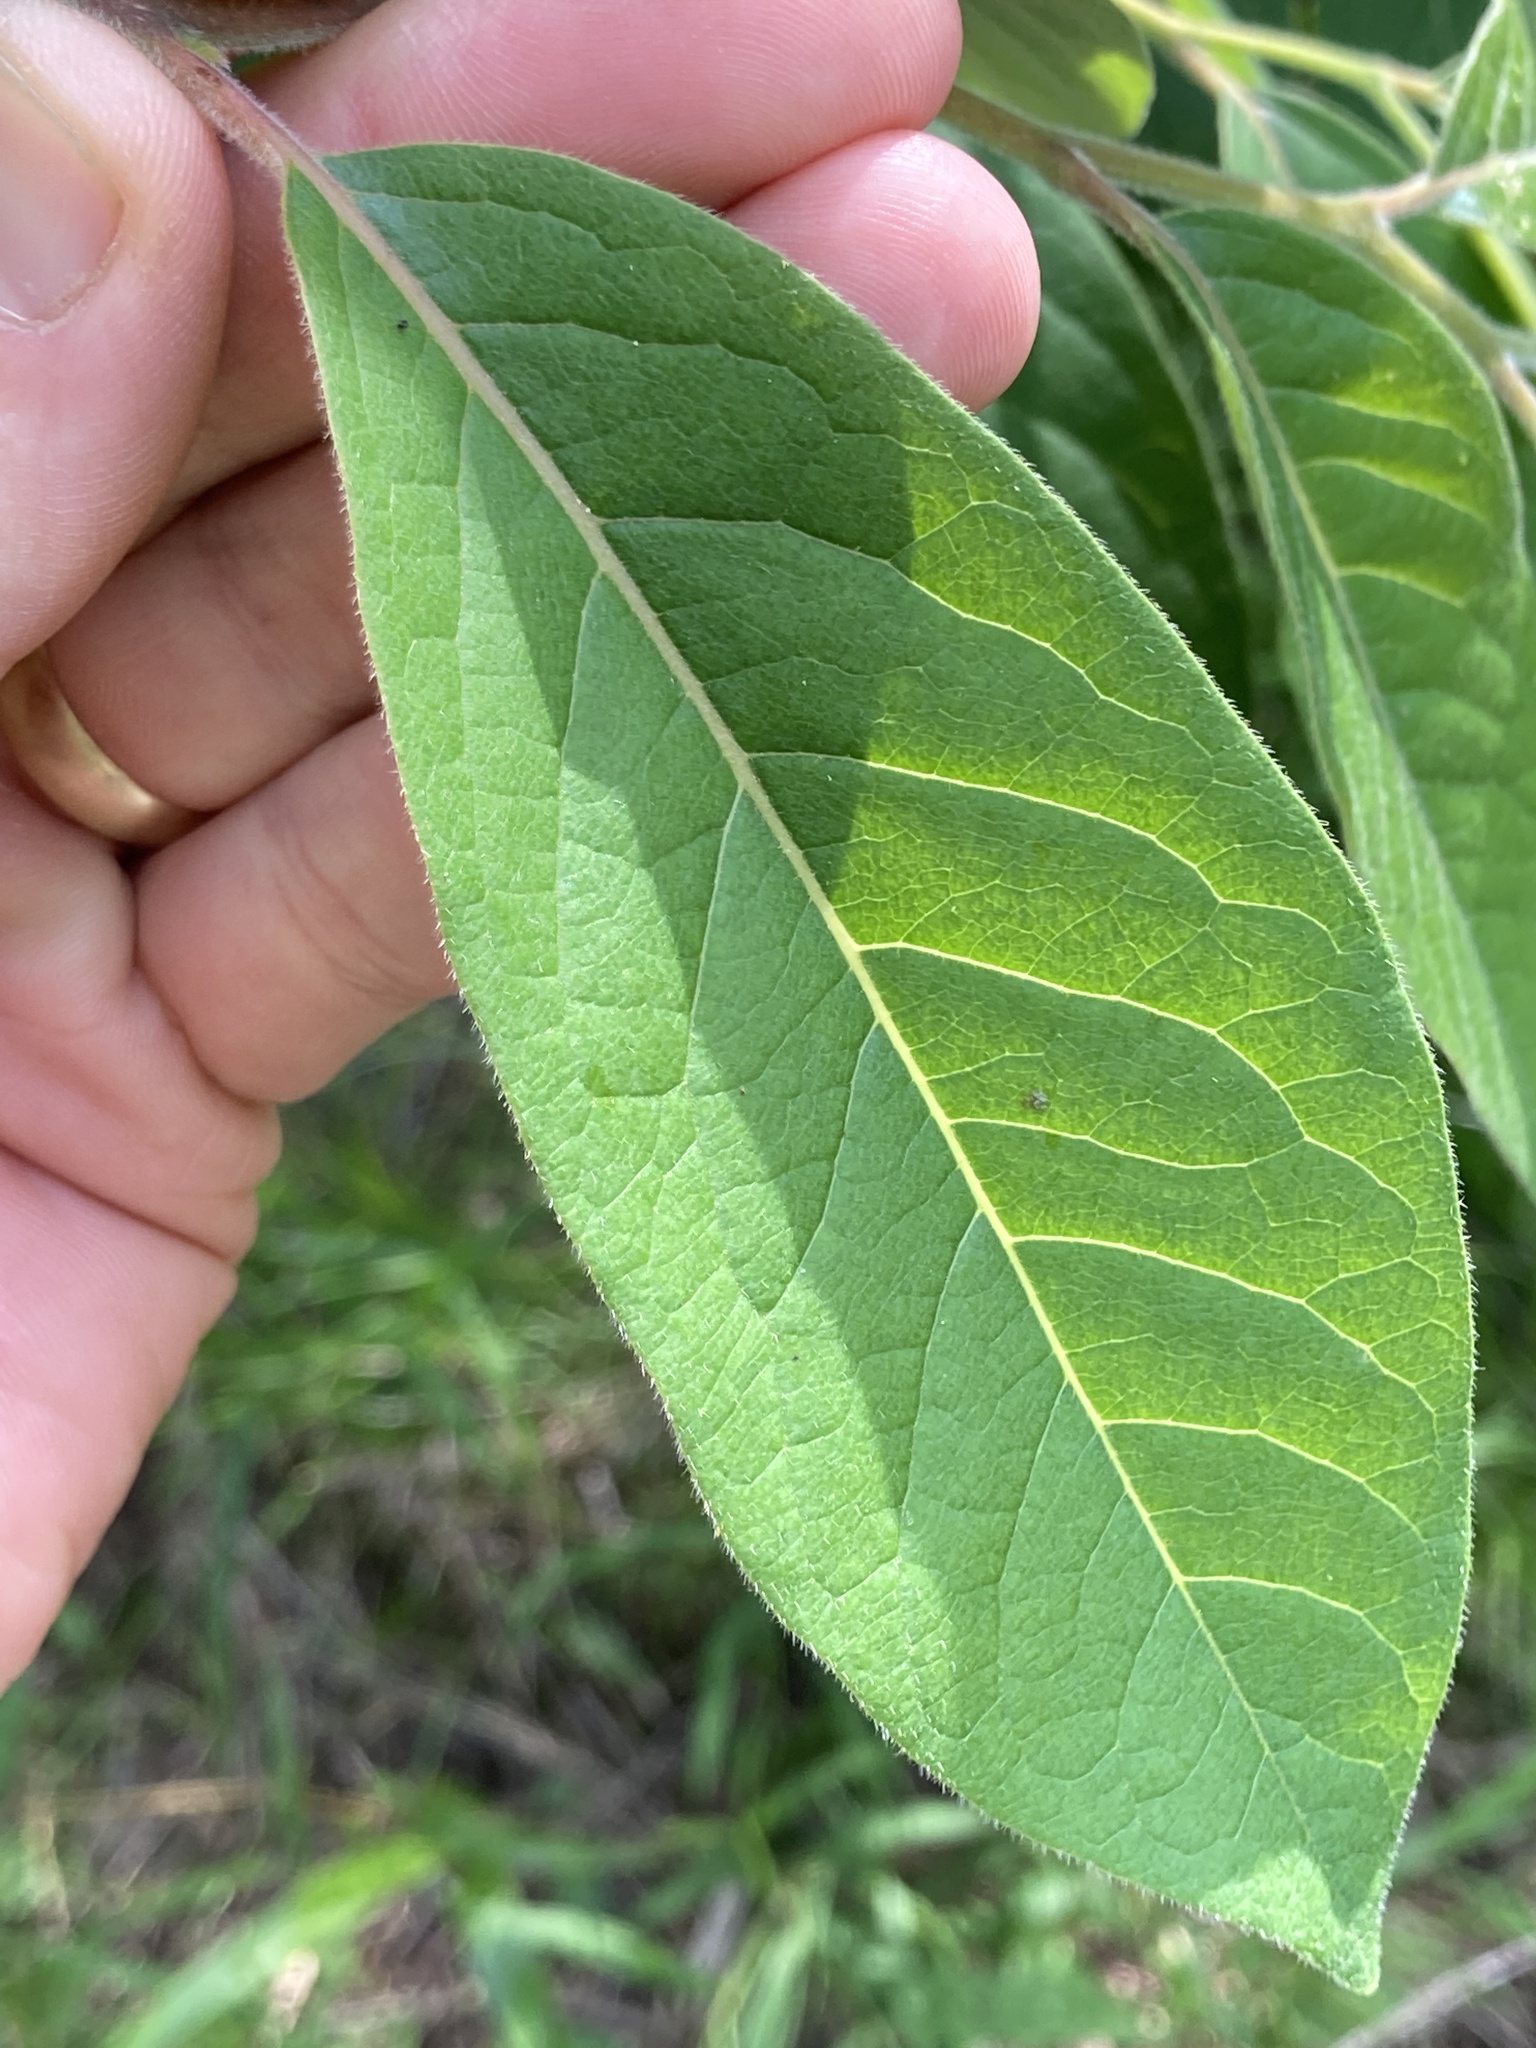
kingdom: Plantae
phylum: Tracheophyta
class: Magnoliopsida
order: Ericales
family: Ebenaceae
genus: Diospyros
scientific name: Diospyros virginiana
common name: Persimmon
